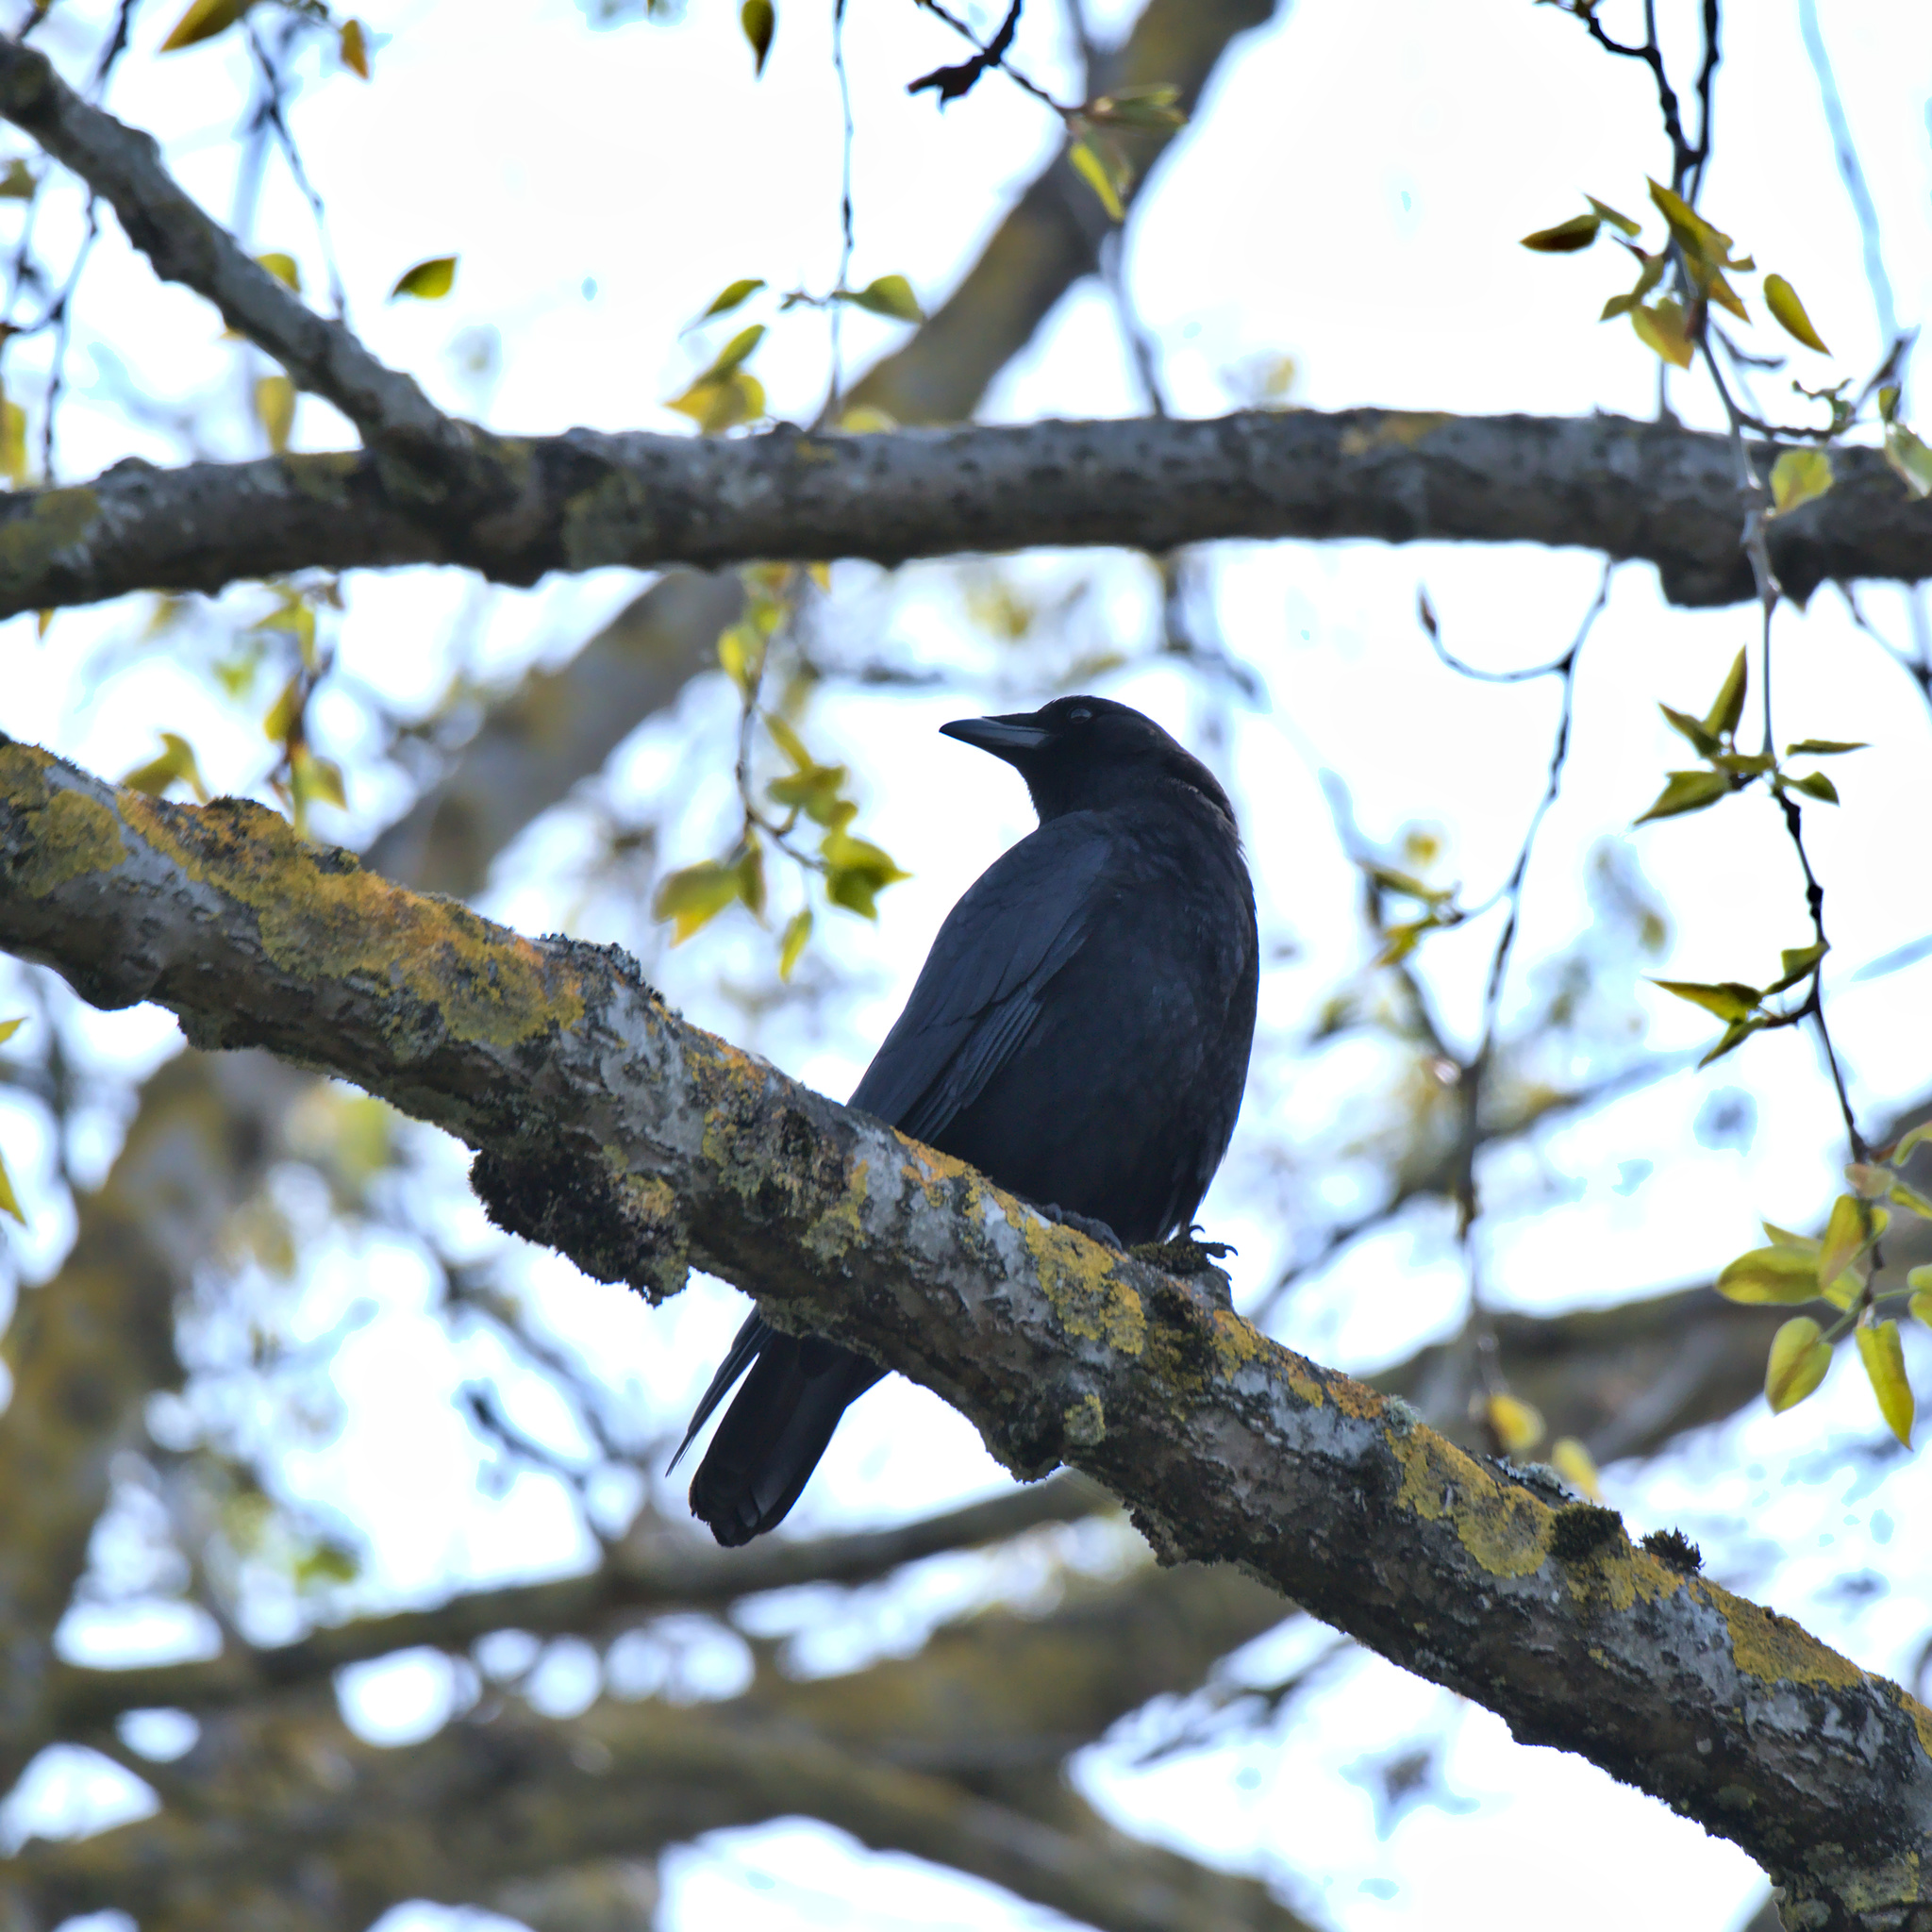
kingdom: Animalia
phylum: Chordata
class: Aves
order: Passeriformes
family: Corvidae
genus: Corvus
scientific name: Corvus brachyrhynchos
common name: American crow
